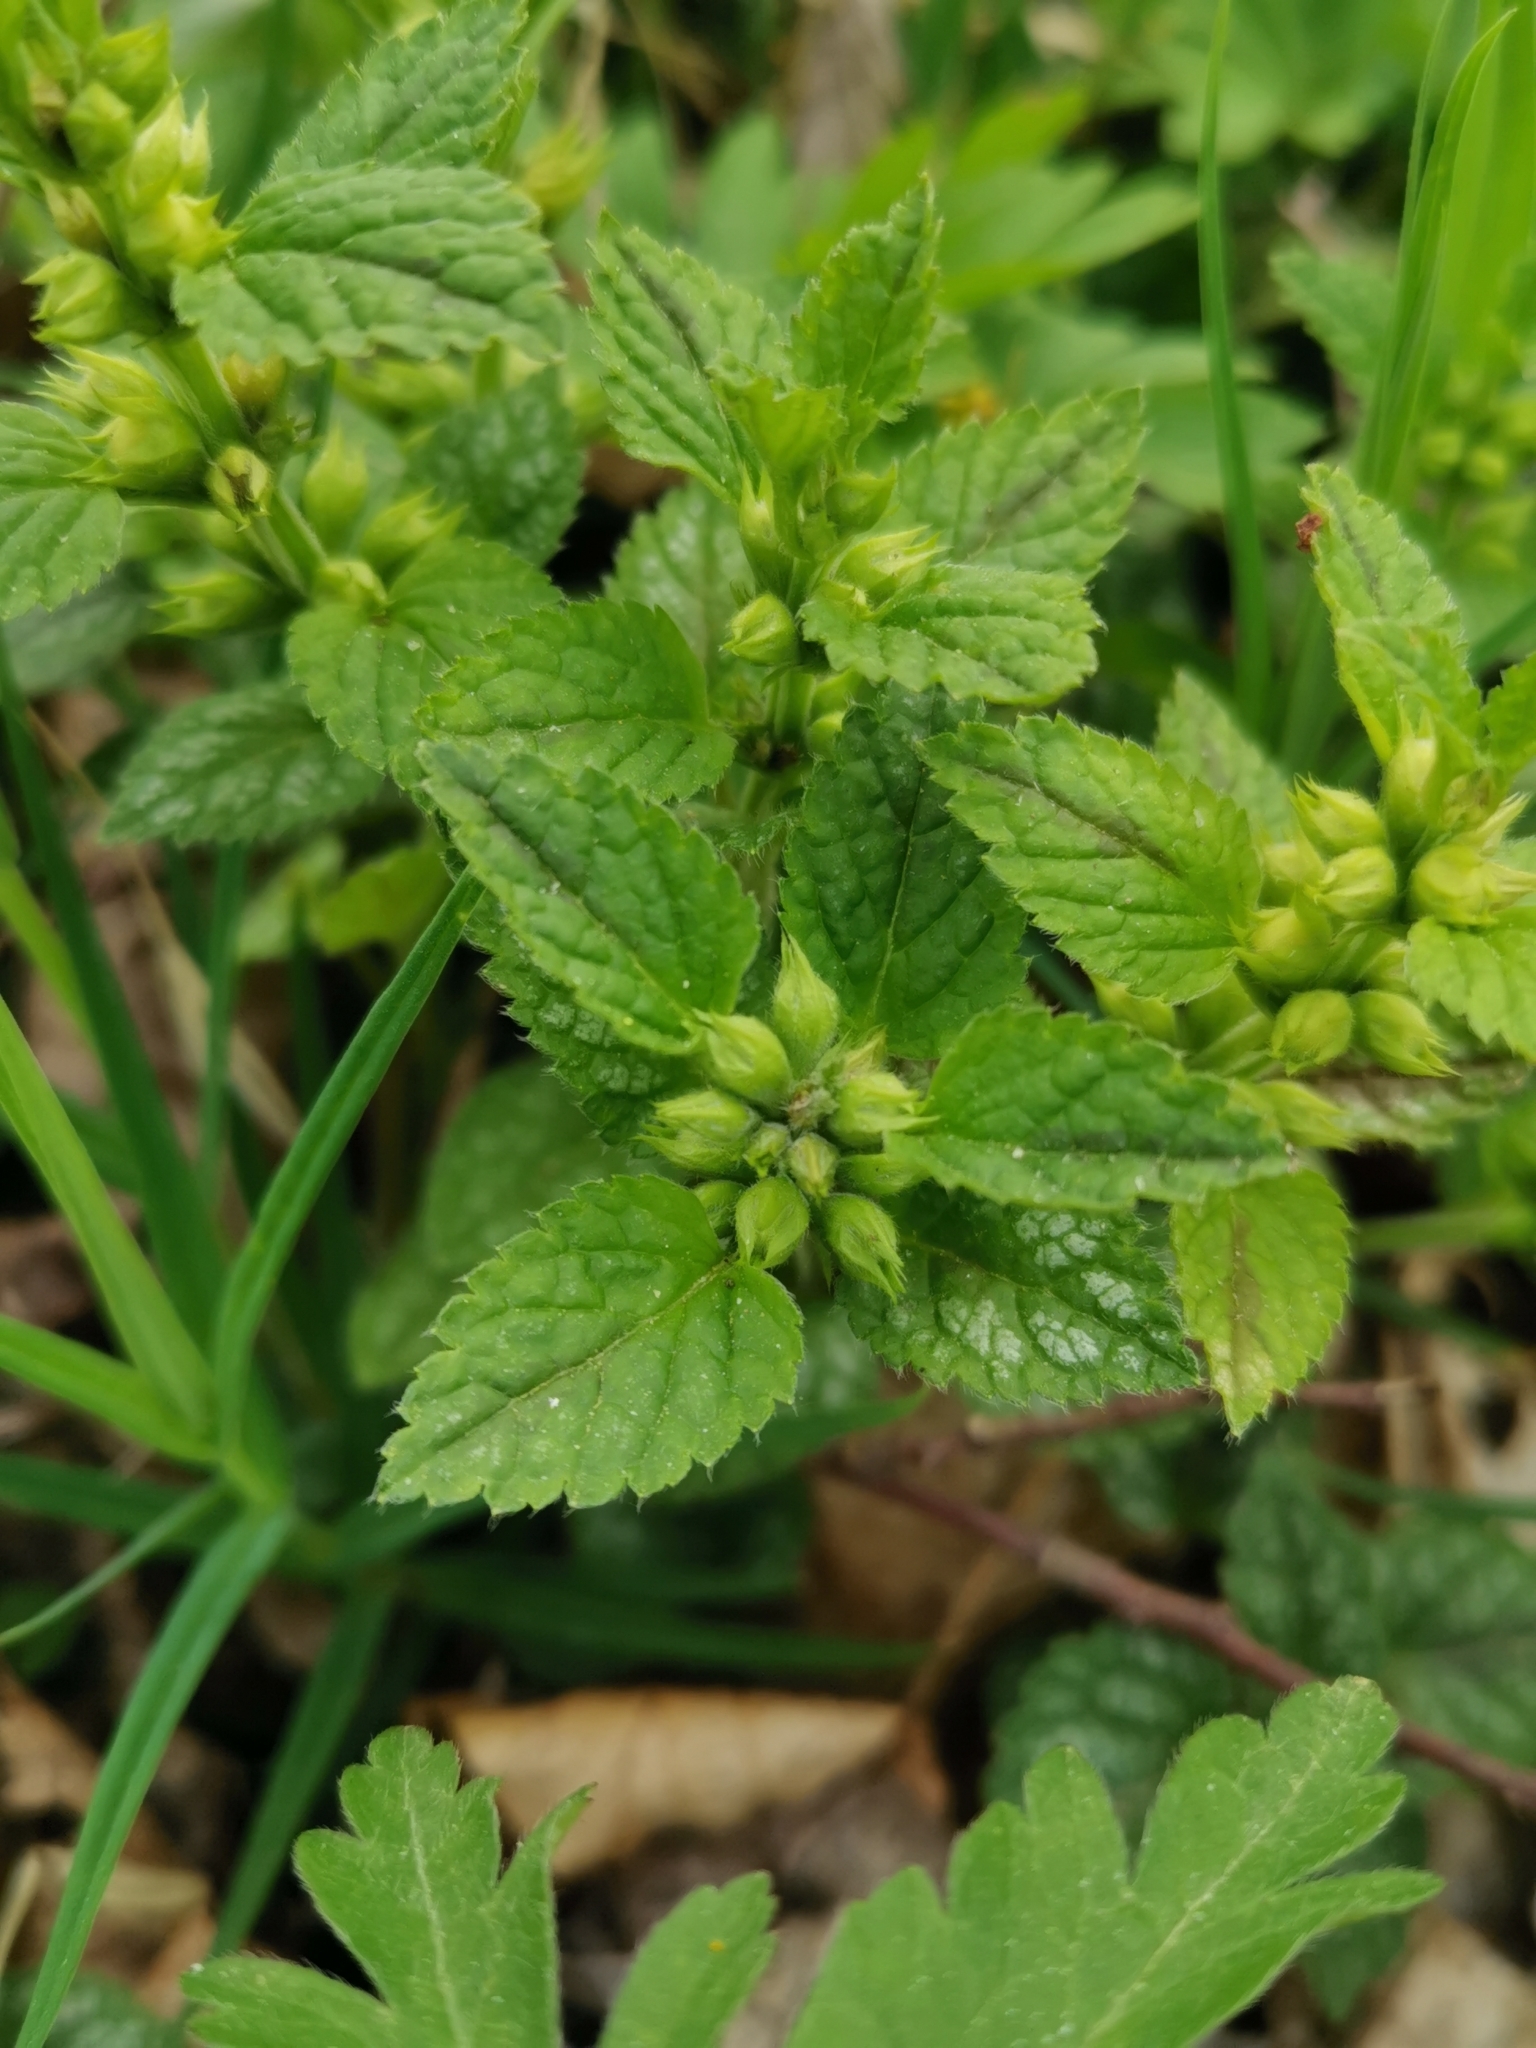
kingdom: Plantae
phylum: Tracheophyta
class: Magnoliopsida
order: Lamiales
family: Lamiaceae
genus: Lamium
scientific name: Lamium galeobdolon
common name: Yellow archangel
